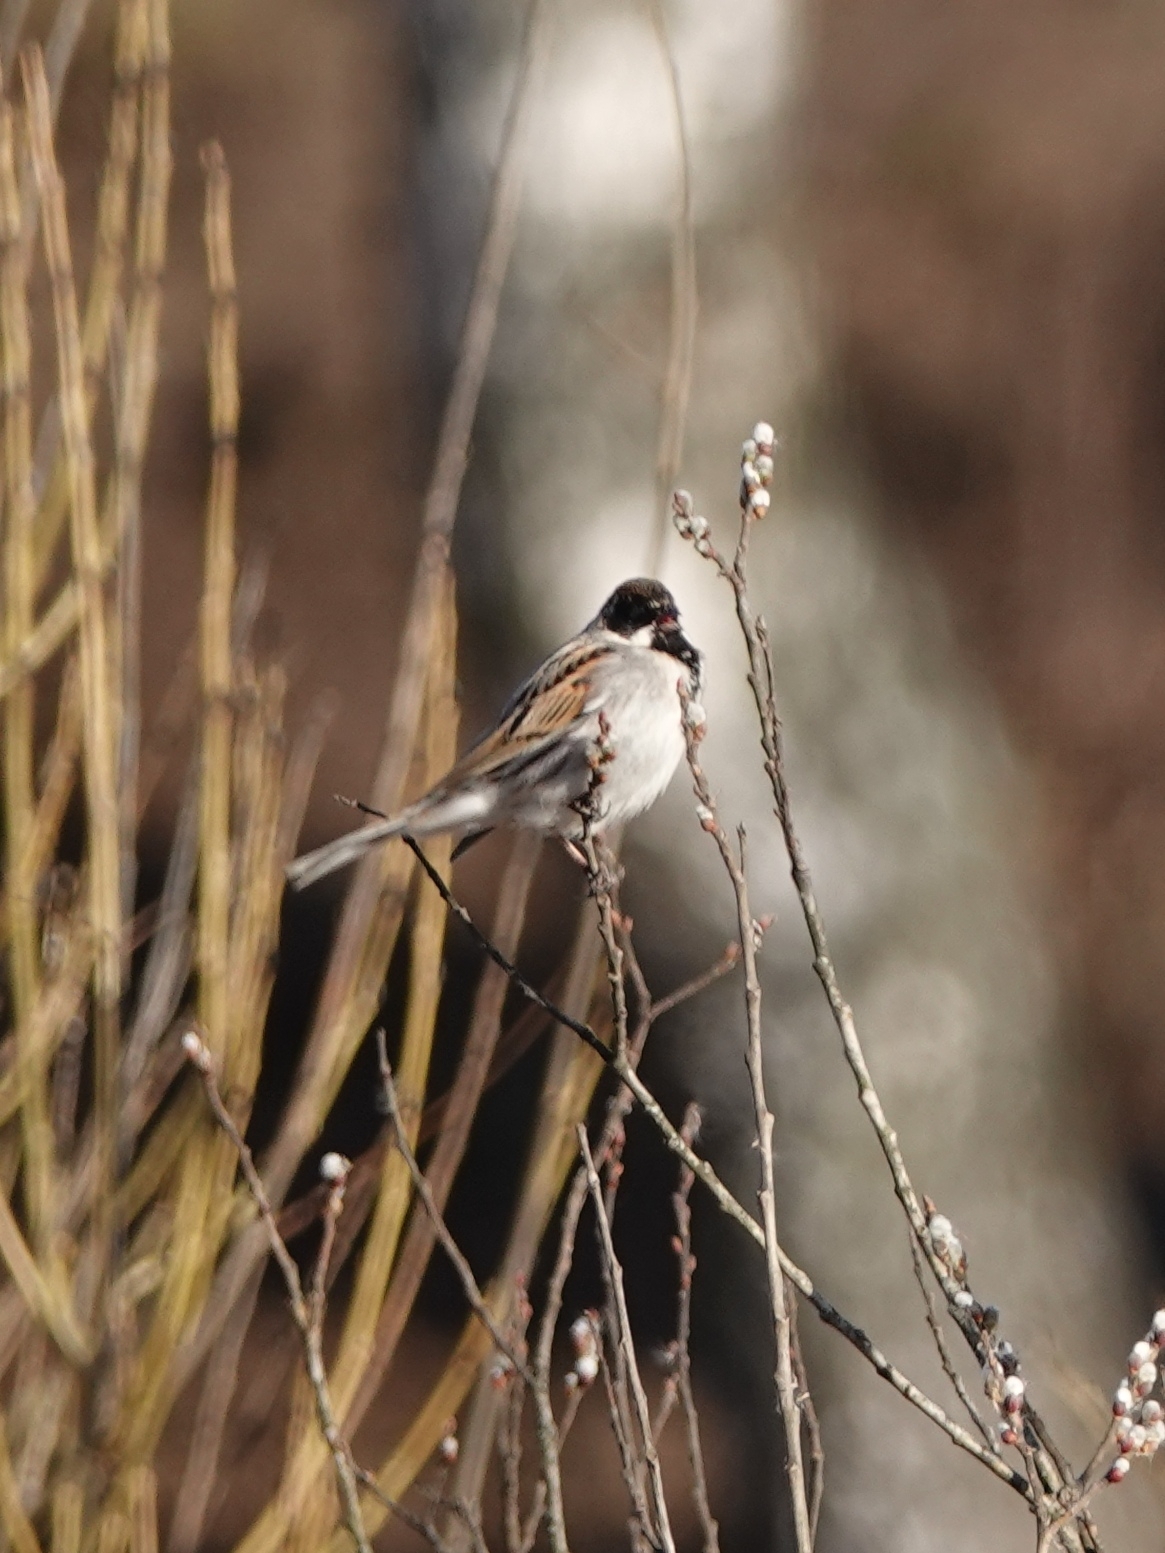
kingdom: Animalia
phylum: Chordata
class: Aves
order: Passeriformes
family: Emberizidae
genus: Emberiza
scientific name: Emberiza schoeniclus
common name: Reed bunting
